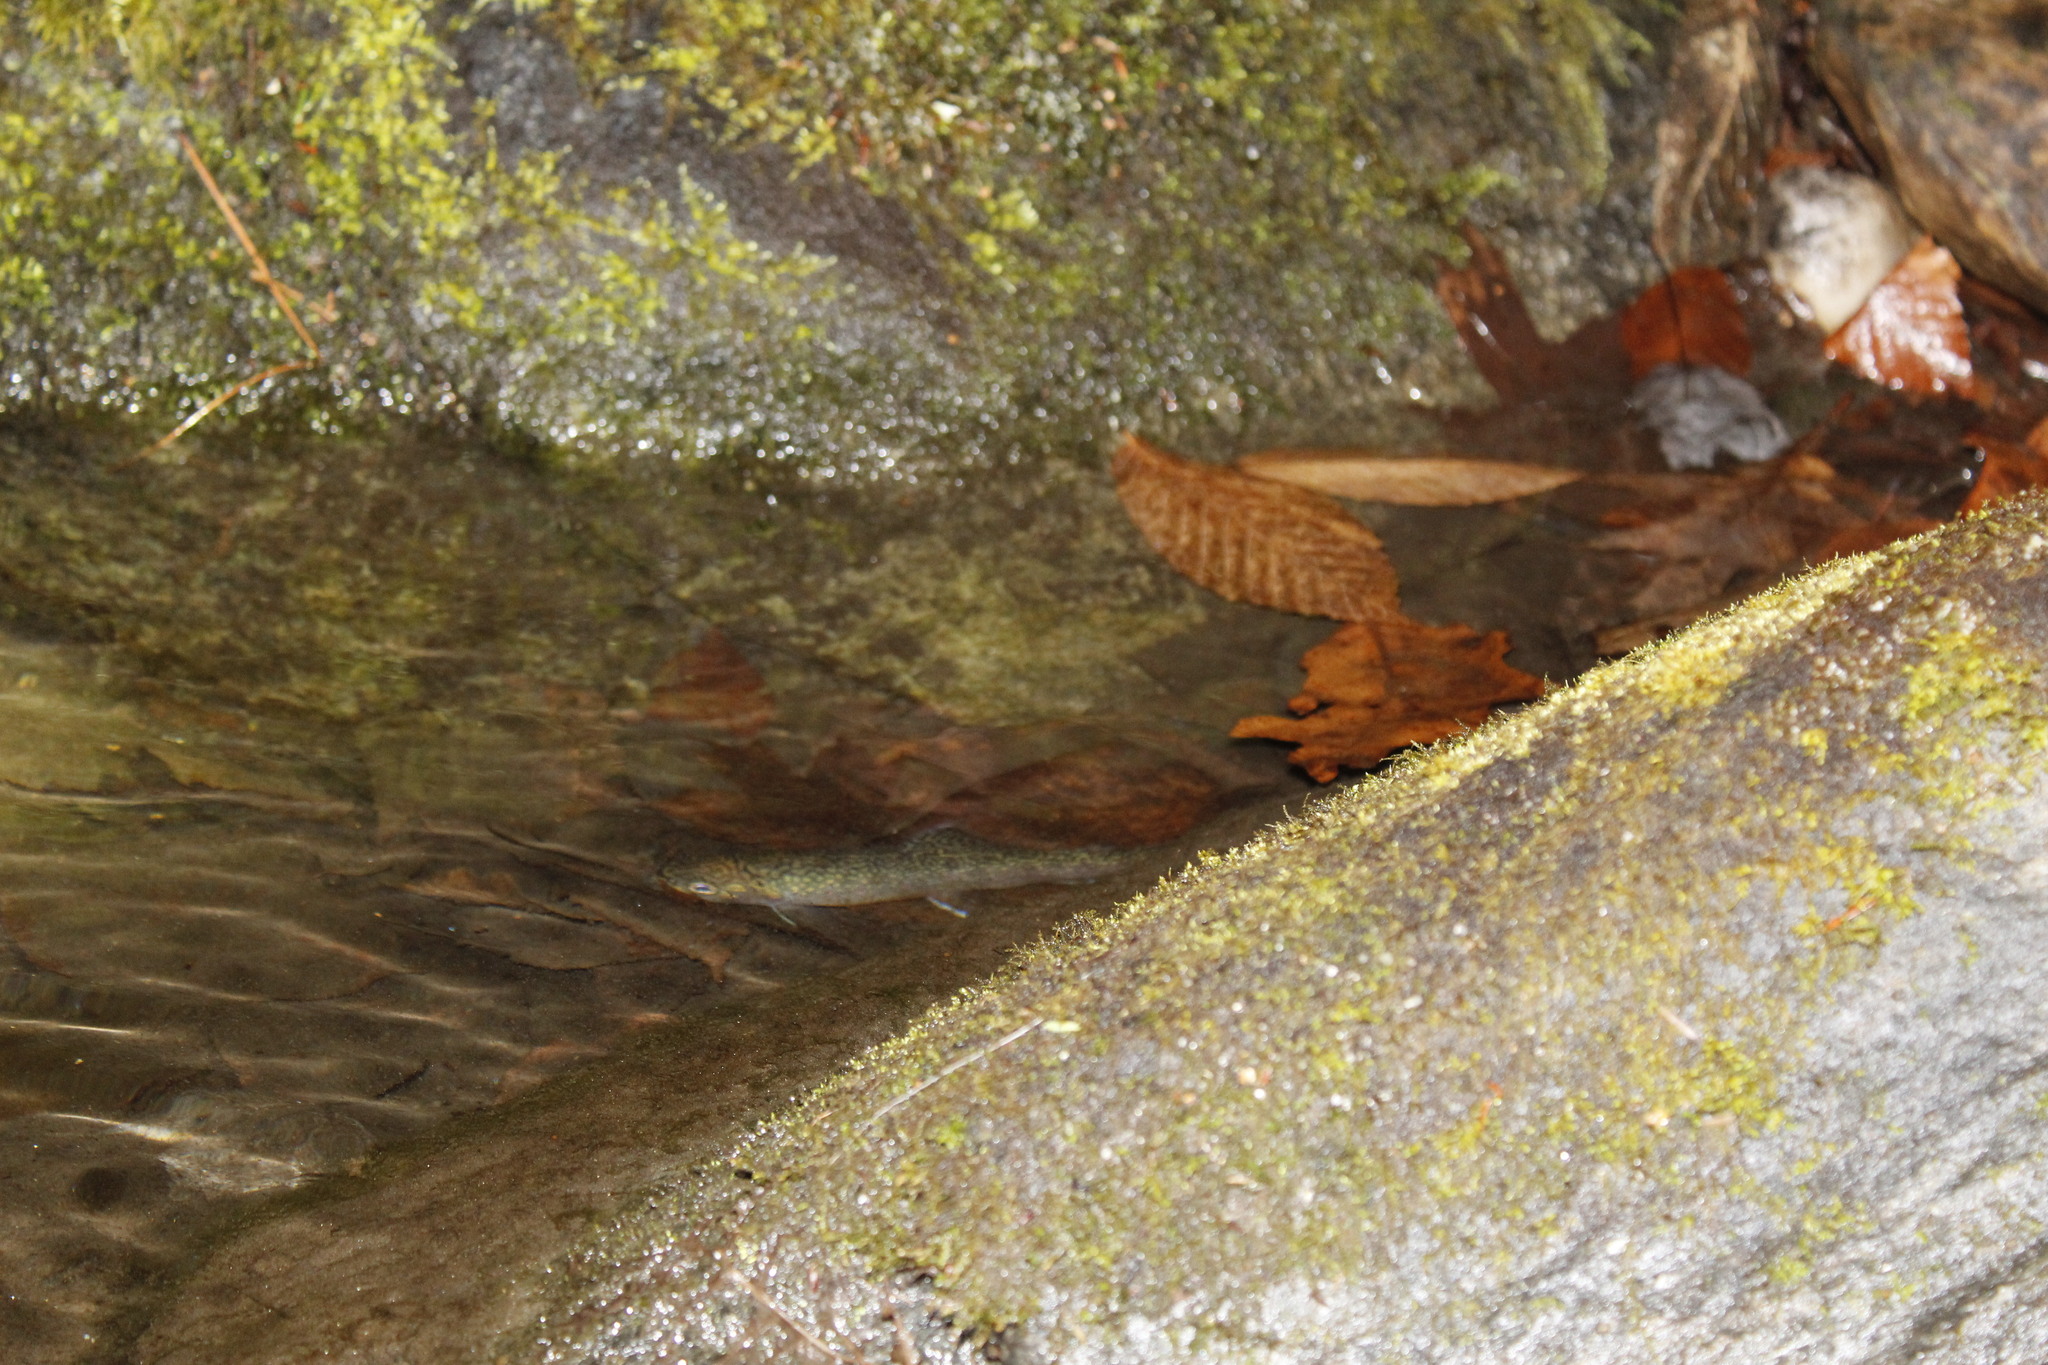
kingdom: Animalia
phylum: Chordata
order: Salmoniformes
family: Salmonidae
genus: Salvelinus
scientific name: Salvelinus fontinalis
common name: Brook trout
